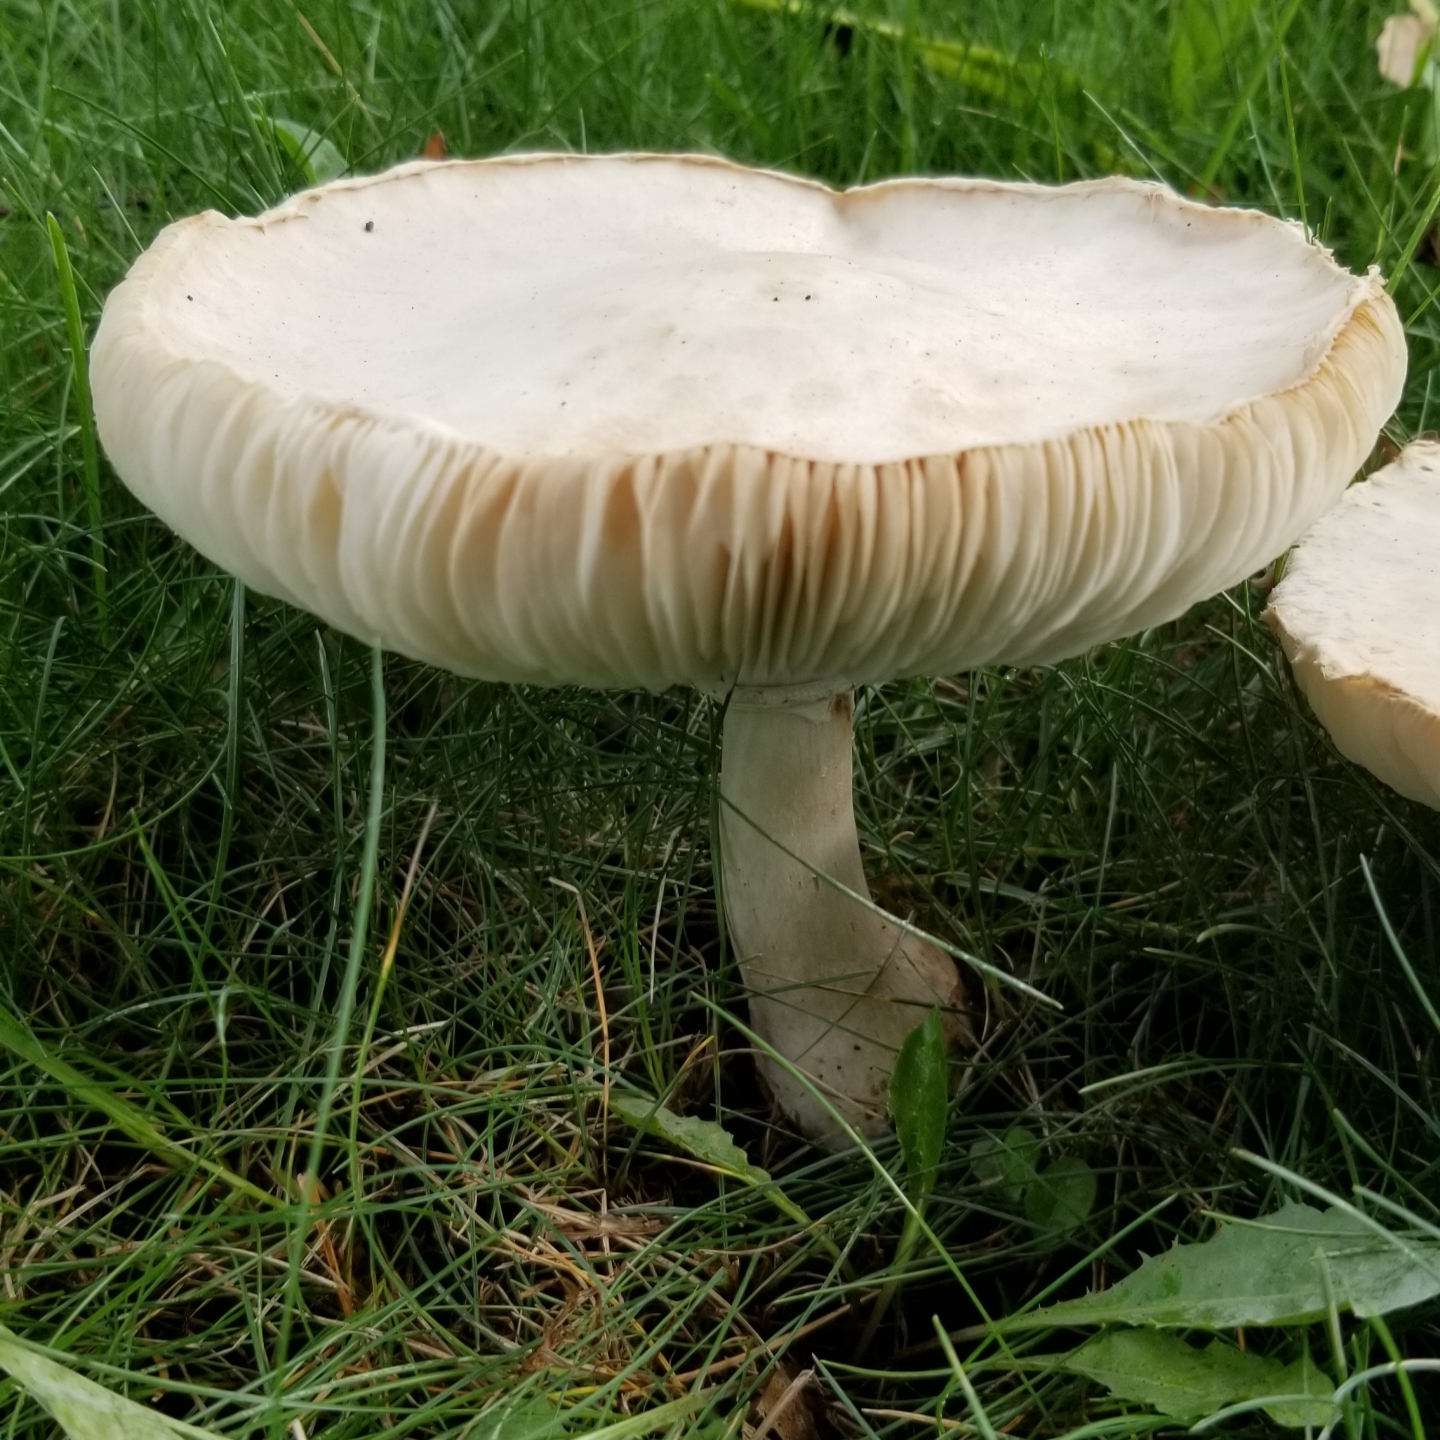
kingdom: Fungi
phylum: Basidiomycota
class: Agaricomycetes
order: Agaricales
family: Agaricaceae
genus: Leucoagaricus
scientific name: Leucoagaricus leucothites
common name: White dapperling
